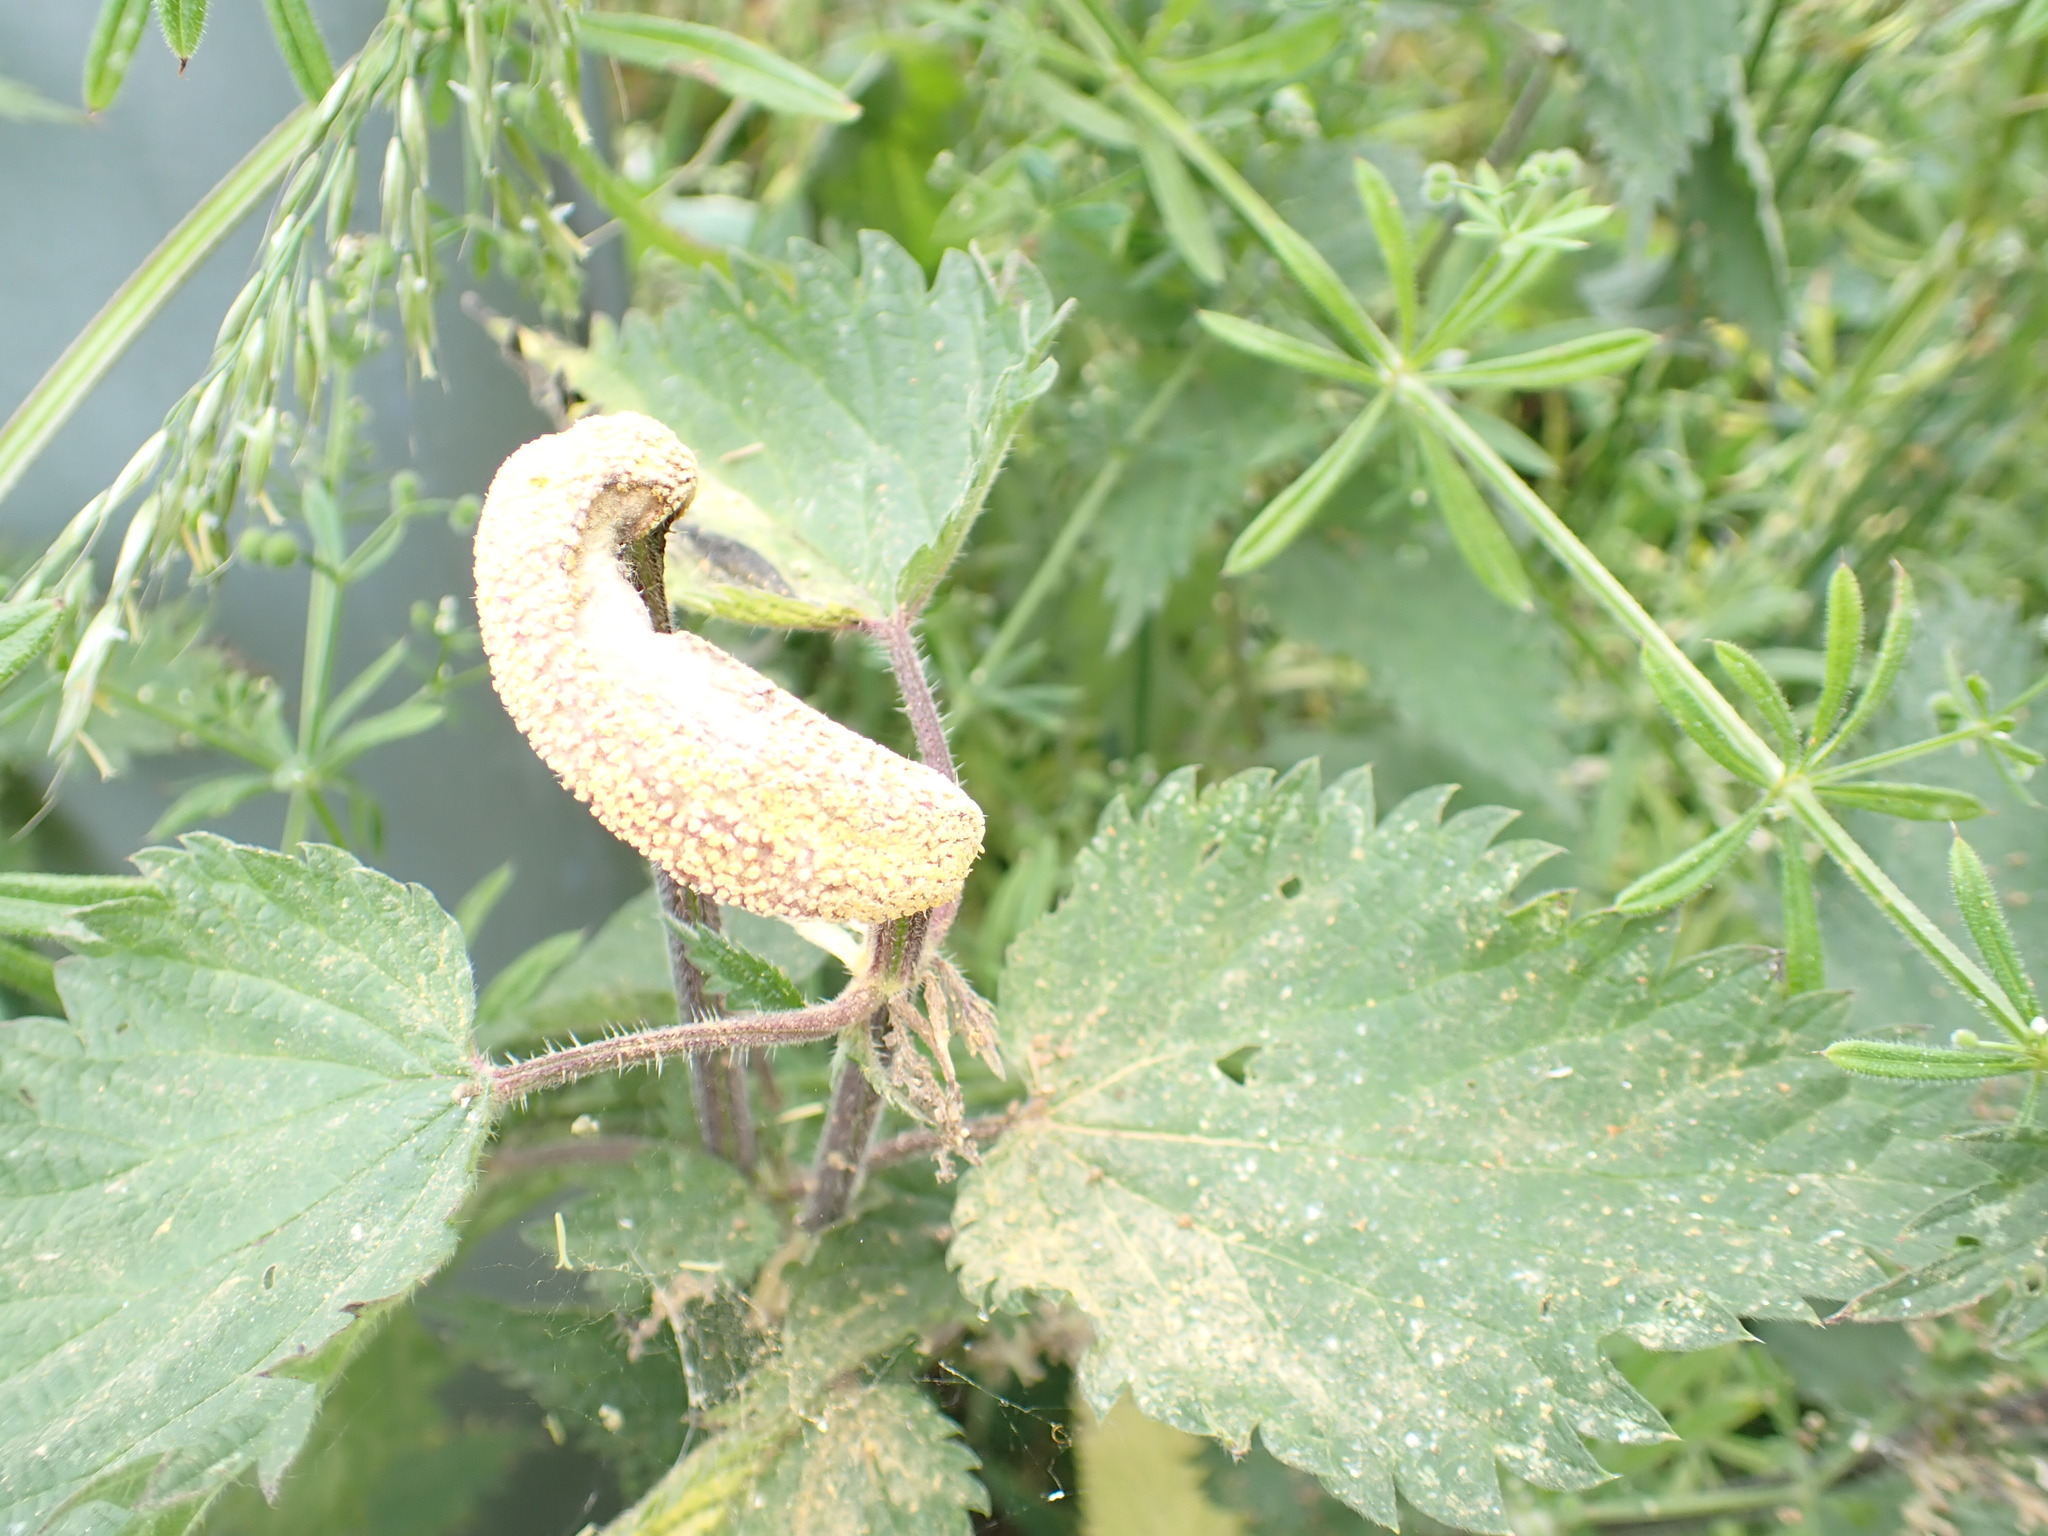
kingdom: Fungi
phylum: Basidiomycota
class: Pucciniomycetes
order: Pucciniales
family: Pucciniaceae
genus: Puccinia
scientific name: Puccinia urticata
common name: Nettle clustercup rust fungus
